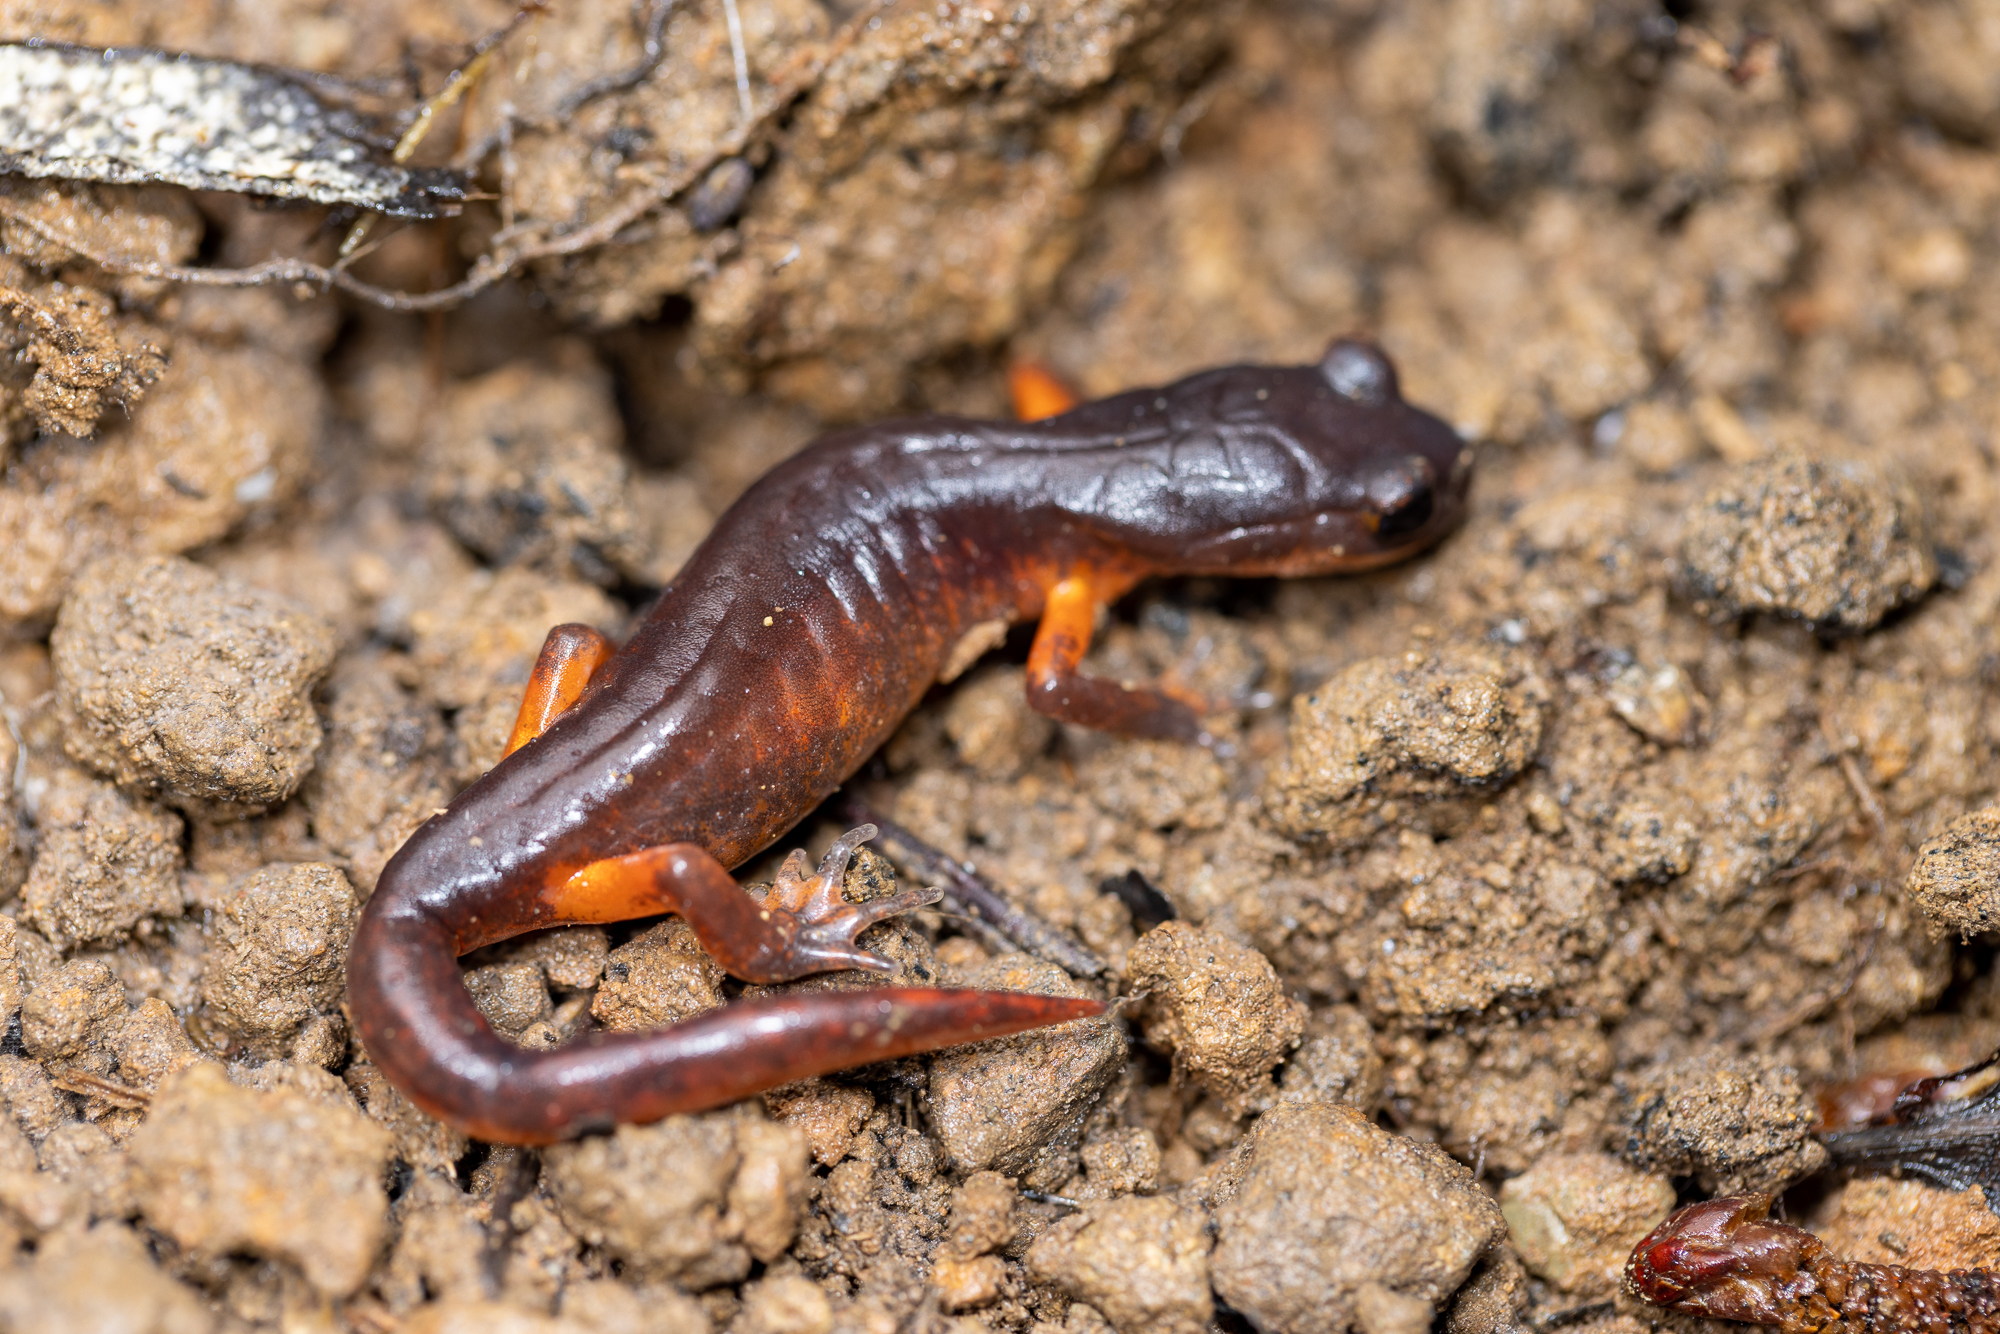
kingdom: Animalia
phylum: Chordata
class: Amphibia
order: Caudata
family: Plethodontidae
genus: Ensatina
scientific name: Ensatina eschscholtzii
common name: Ensatina
